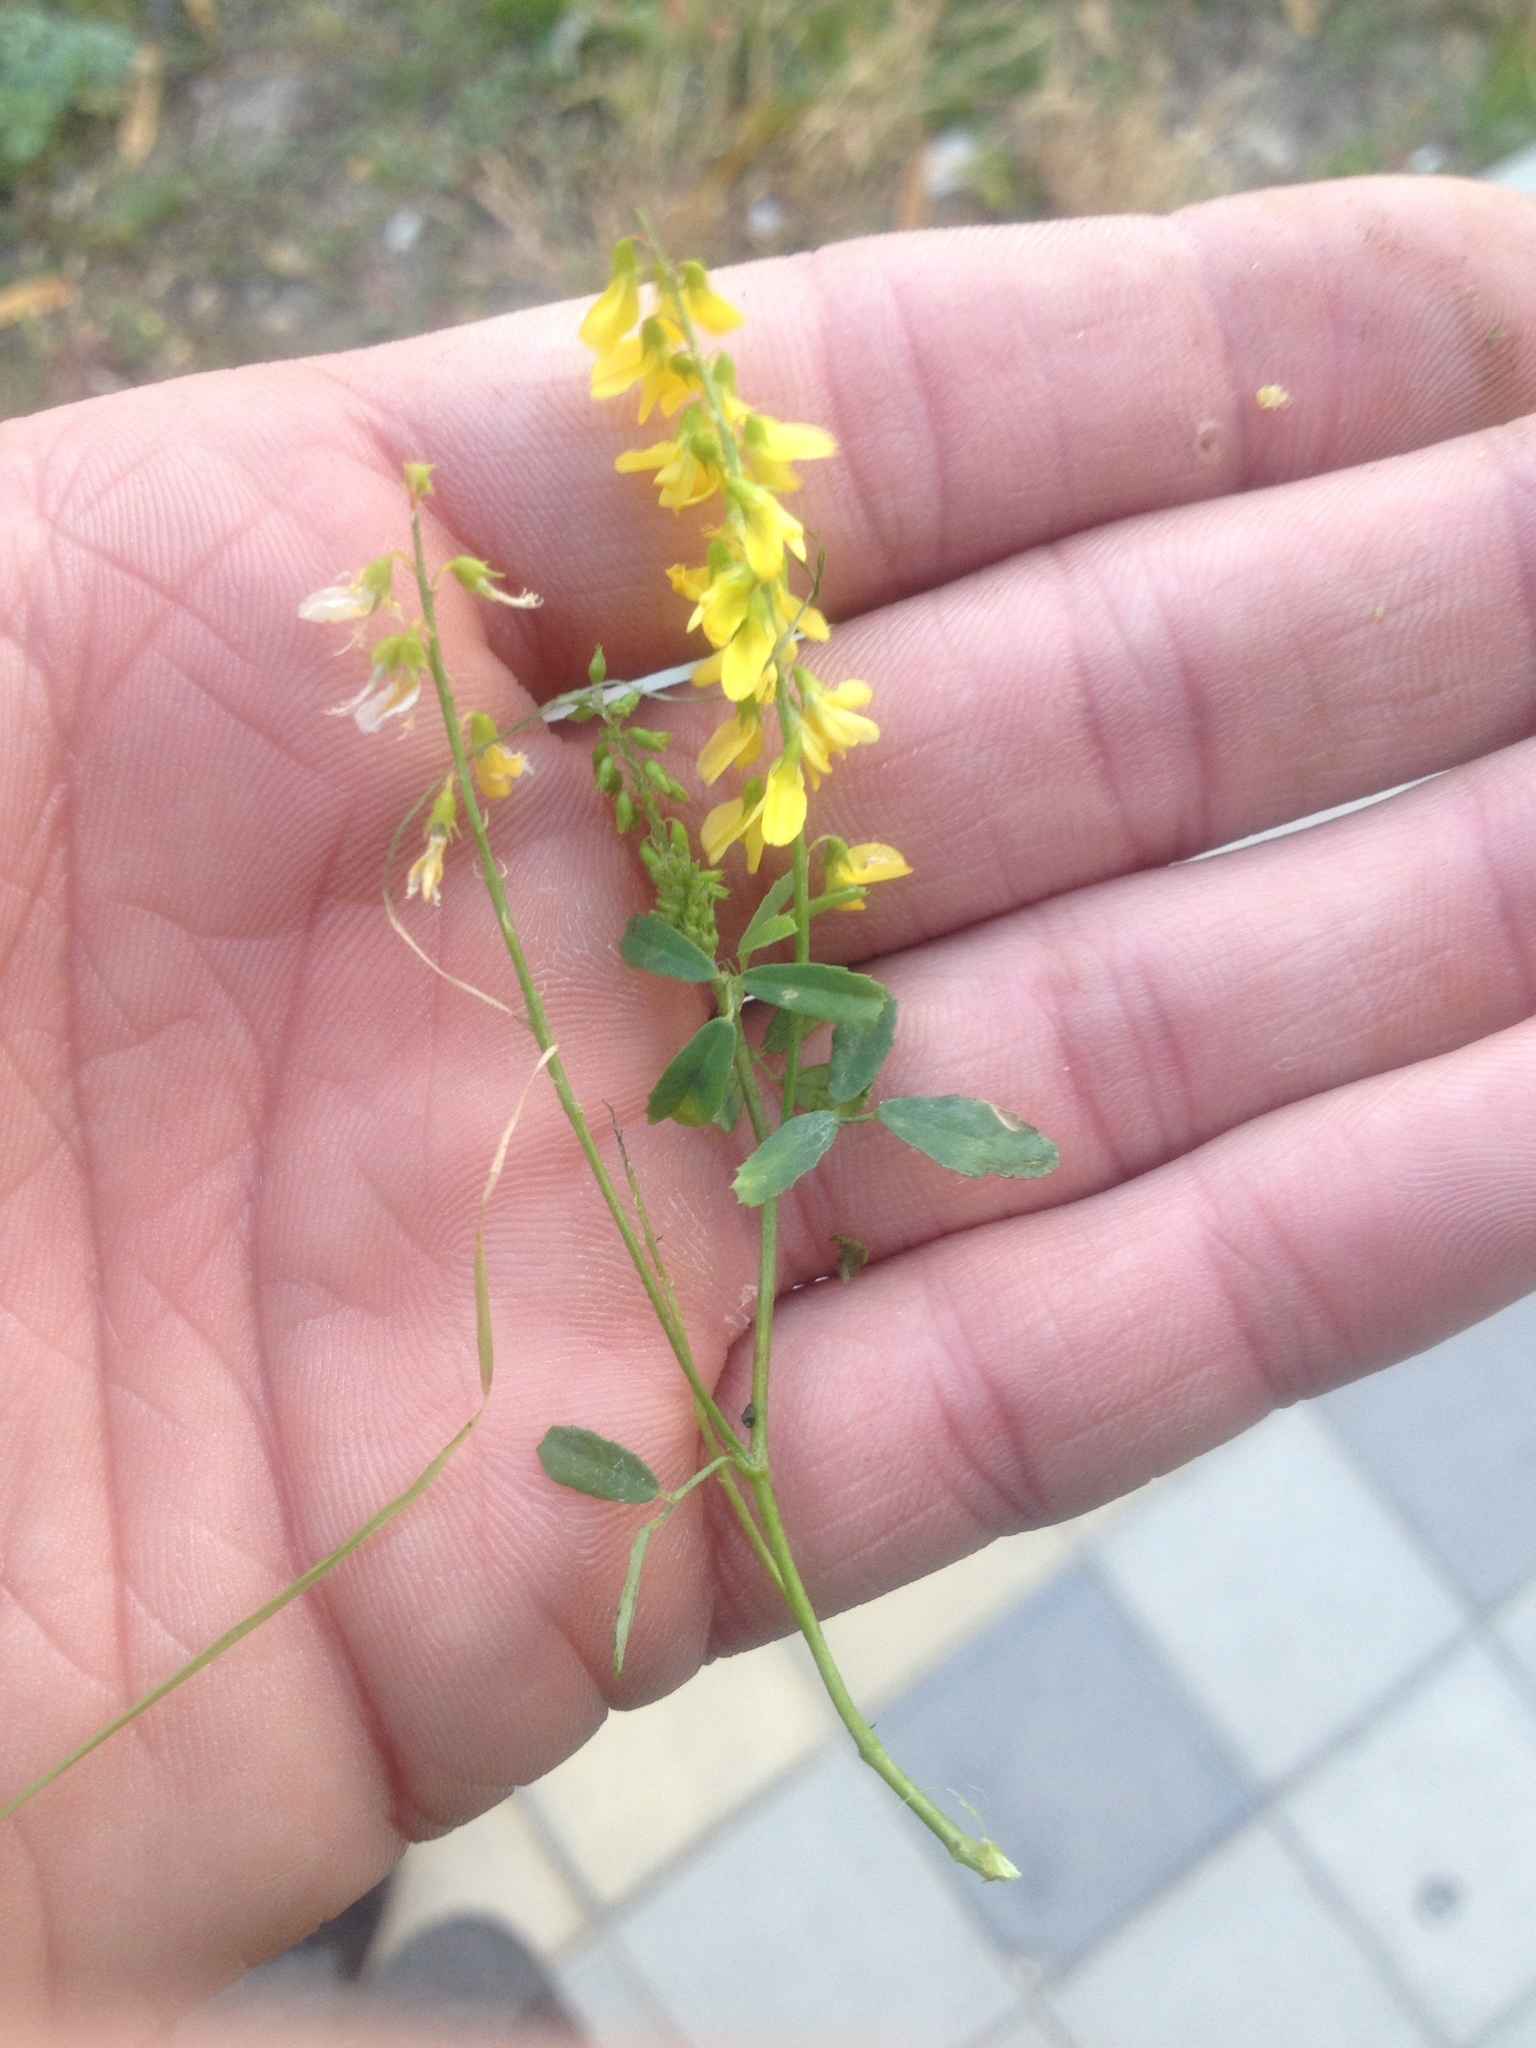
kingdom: Plantae
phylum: Tracheophyta
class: Magnoliopsida
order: Fabales
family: Fabaceae
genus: Melilotus
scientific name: Melilotus officinalis
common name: Sweetclover
